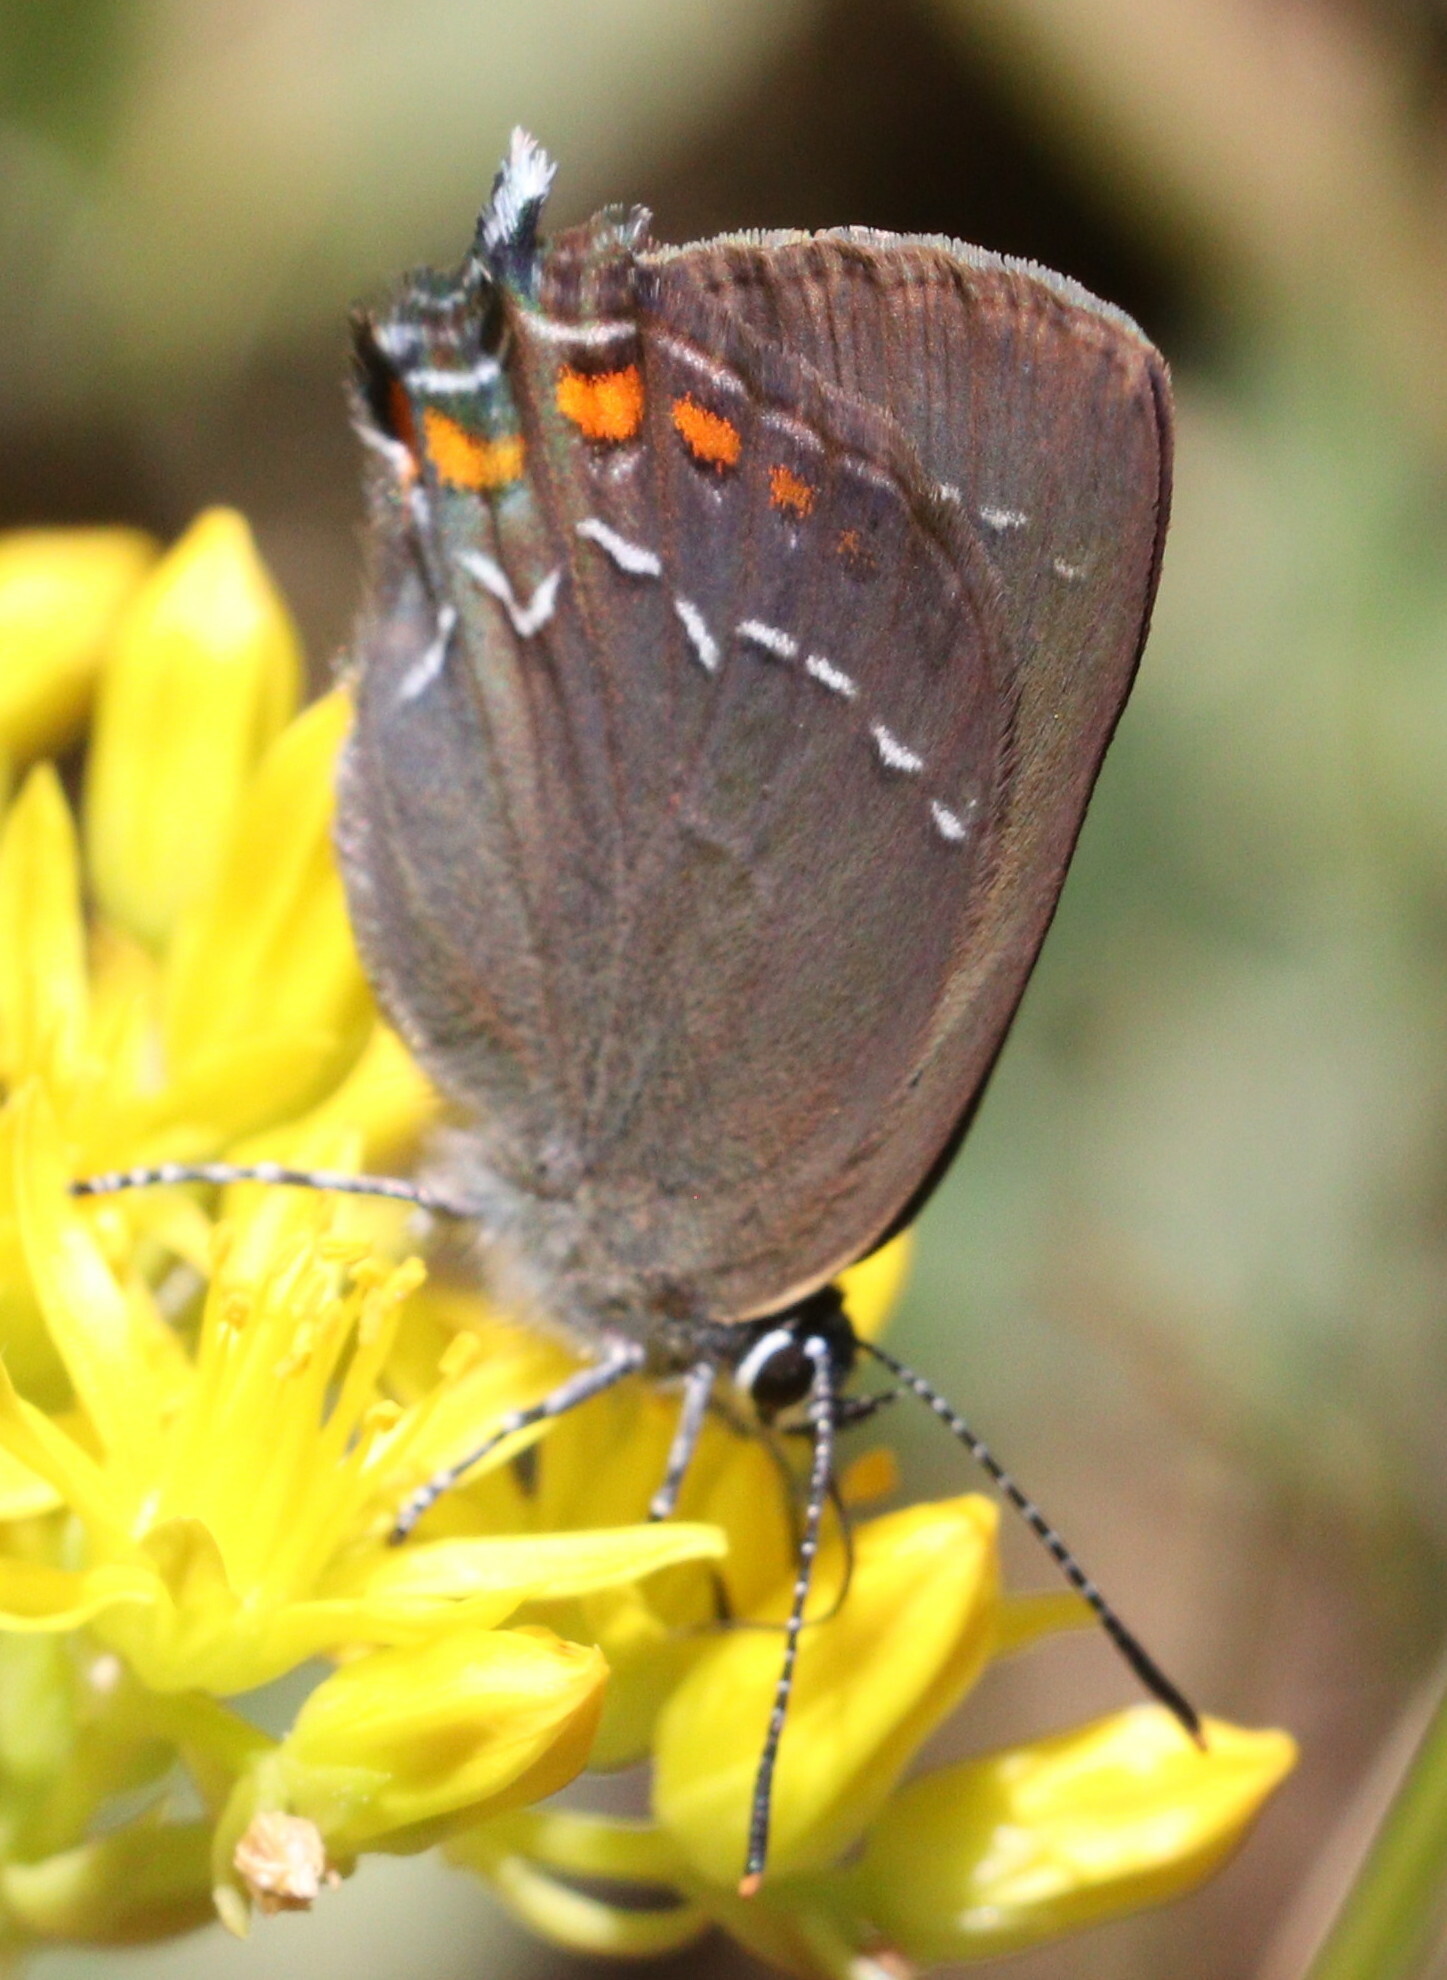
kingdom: Animalia
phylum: Arthropoda
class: Insecta
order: Lepidoptera
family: Lycaenidae
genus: Nordmannia
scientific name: Nordmannia ilicis
